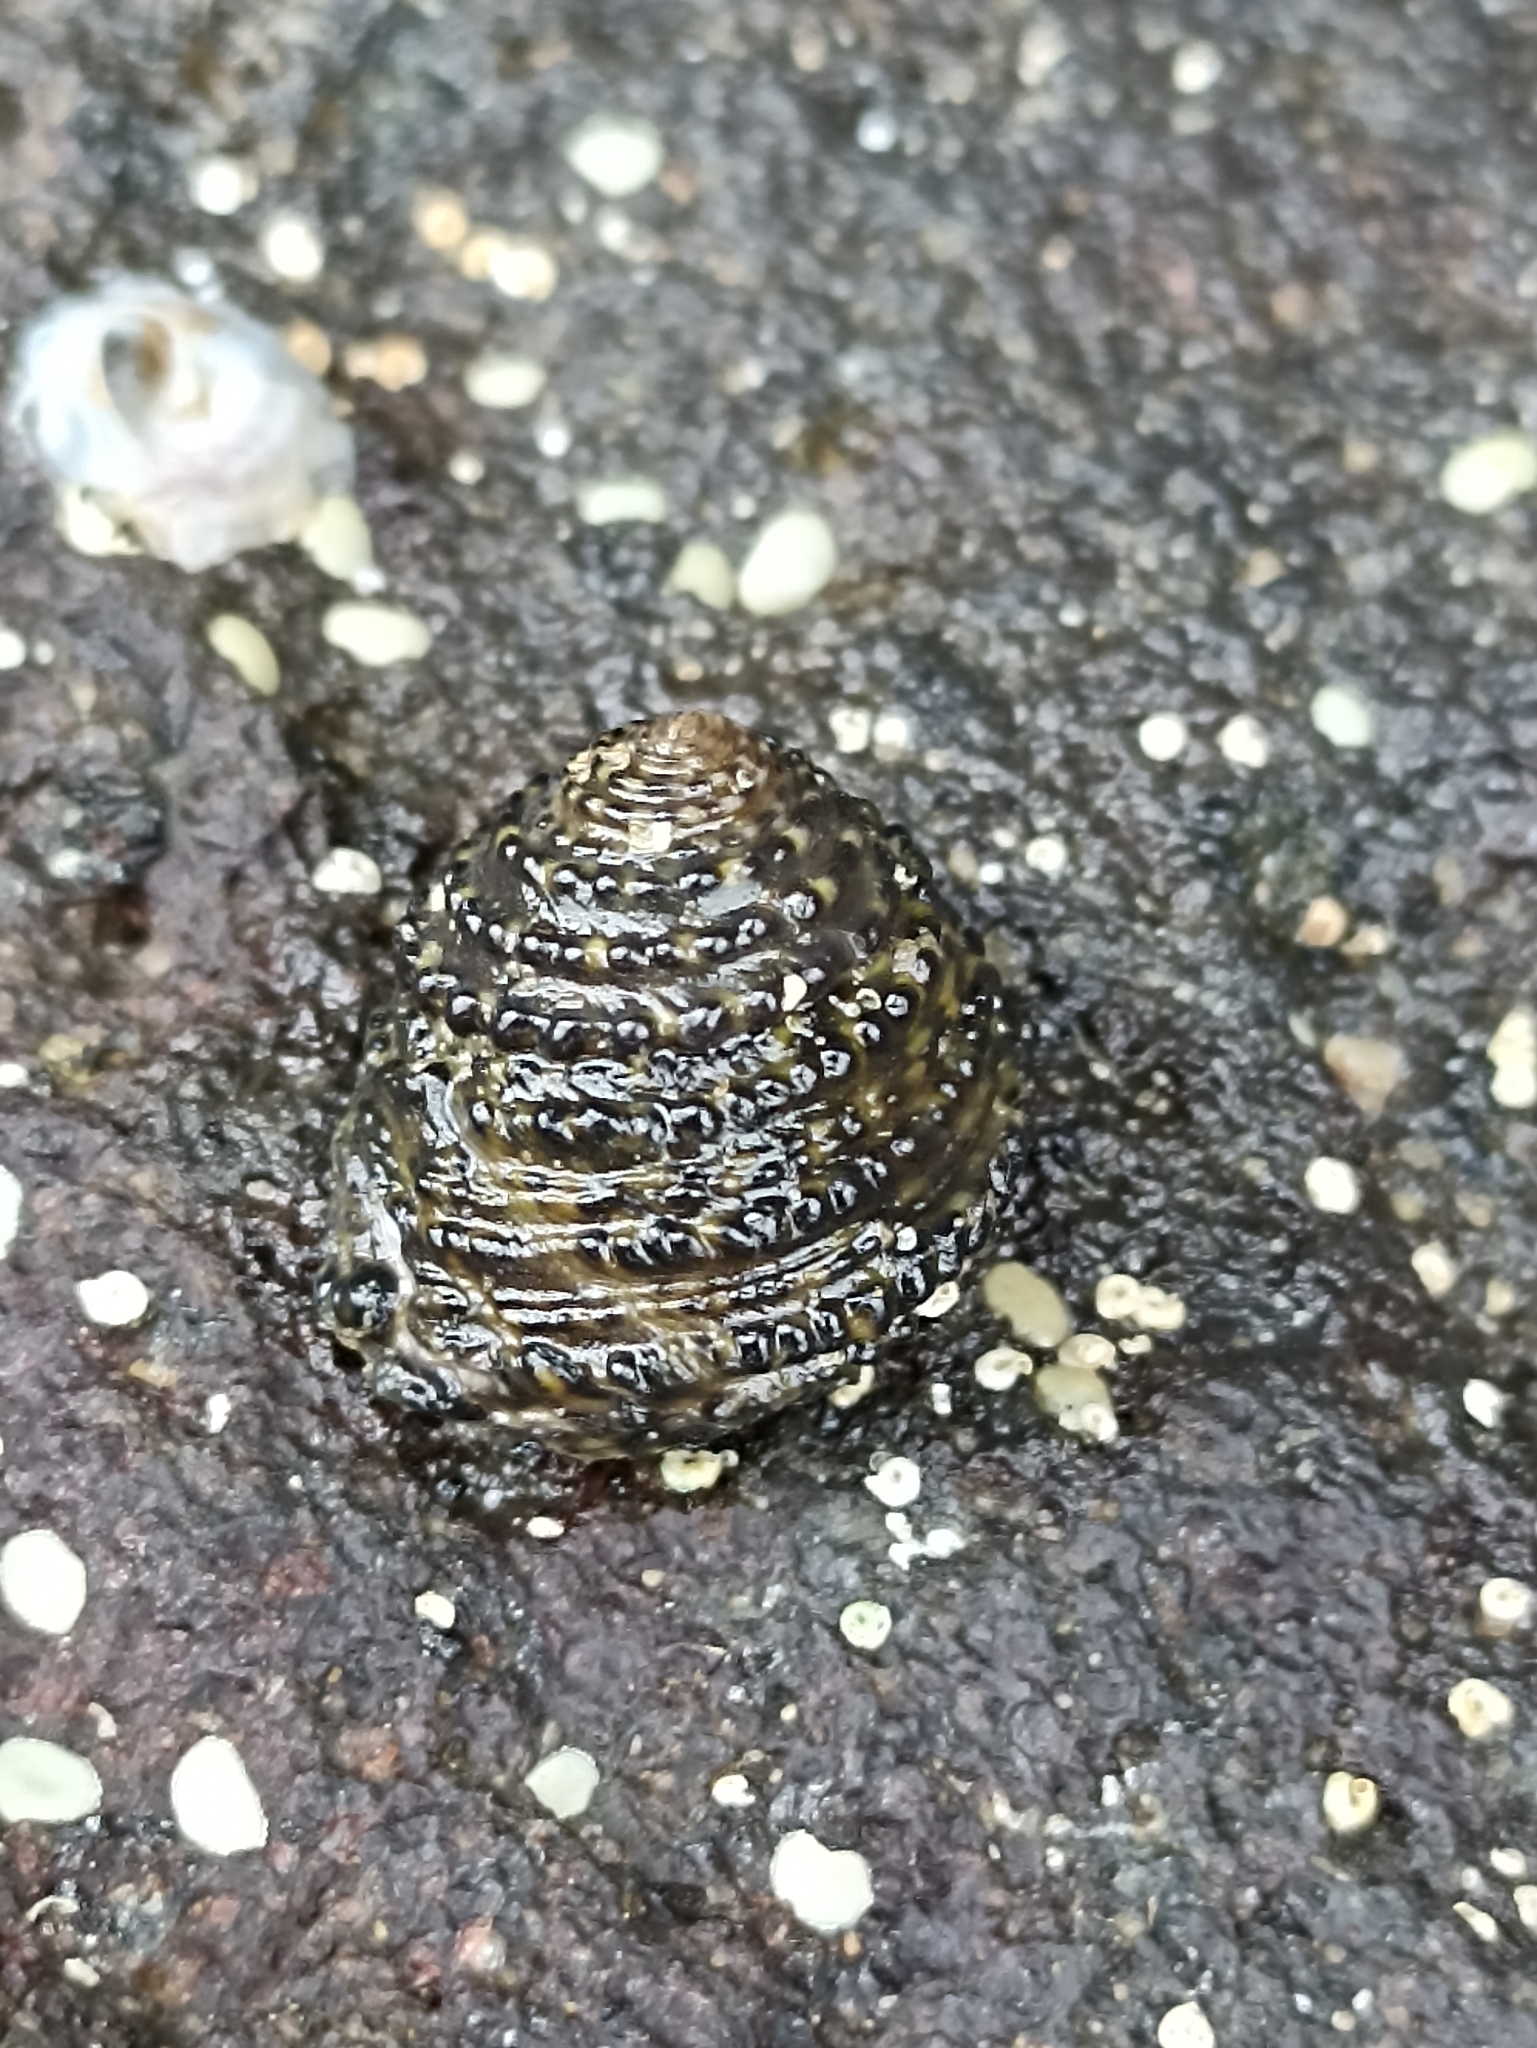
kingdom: Animalia
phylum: Mollusca
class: Gastropoda
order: Trochida
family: Trochidae
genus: Diloma
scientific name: Diloma bicanaliculatum
